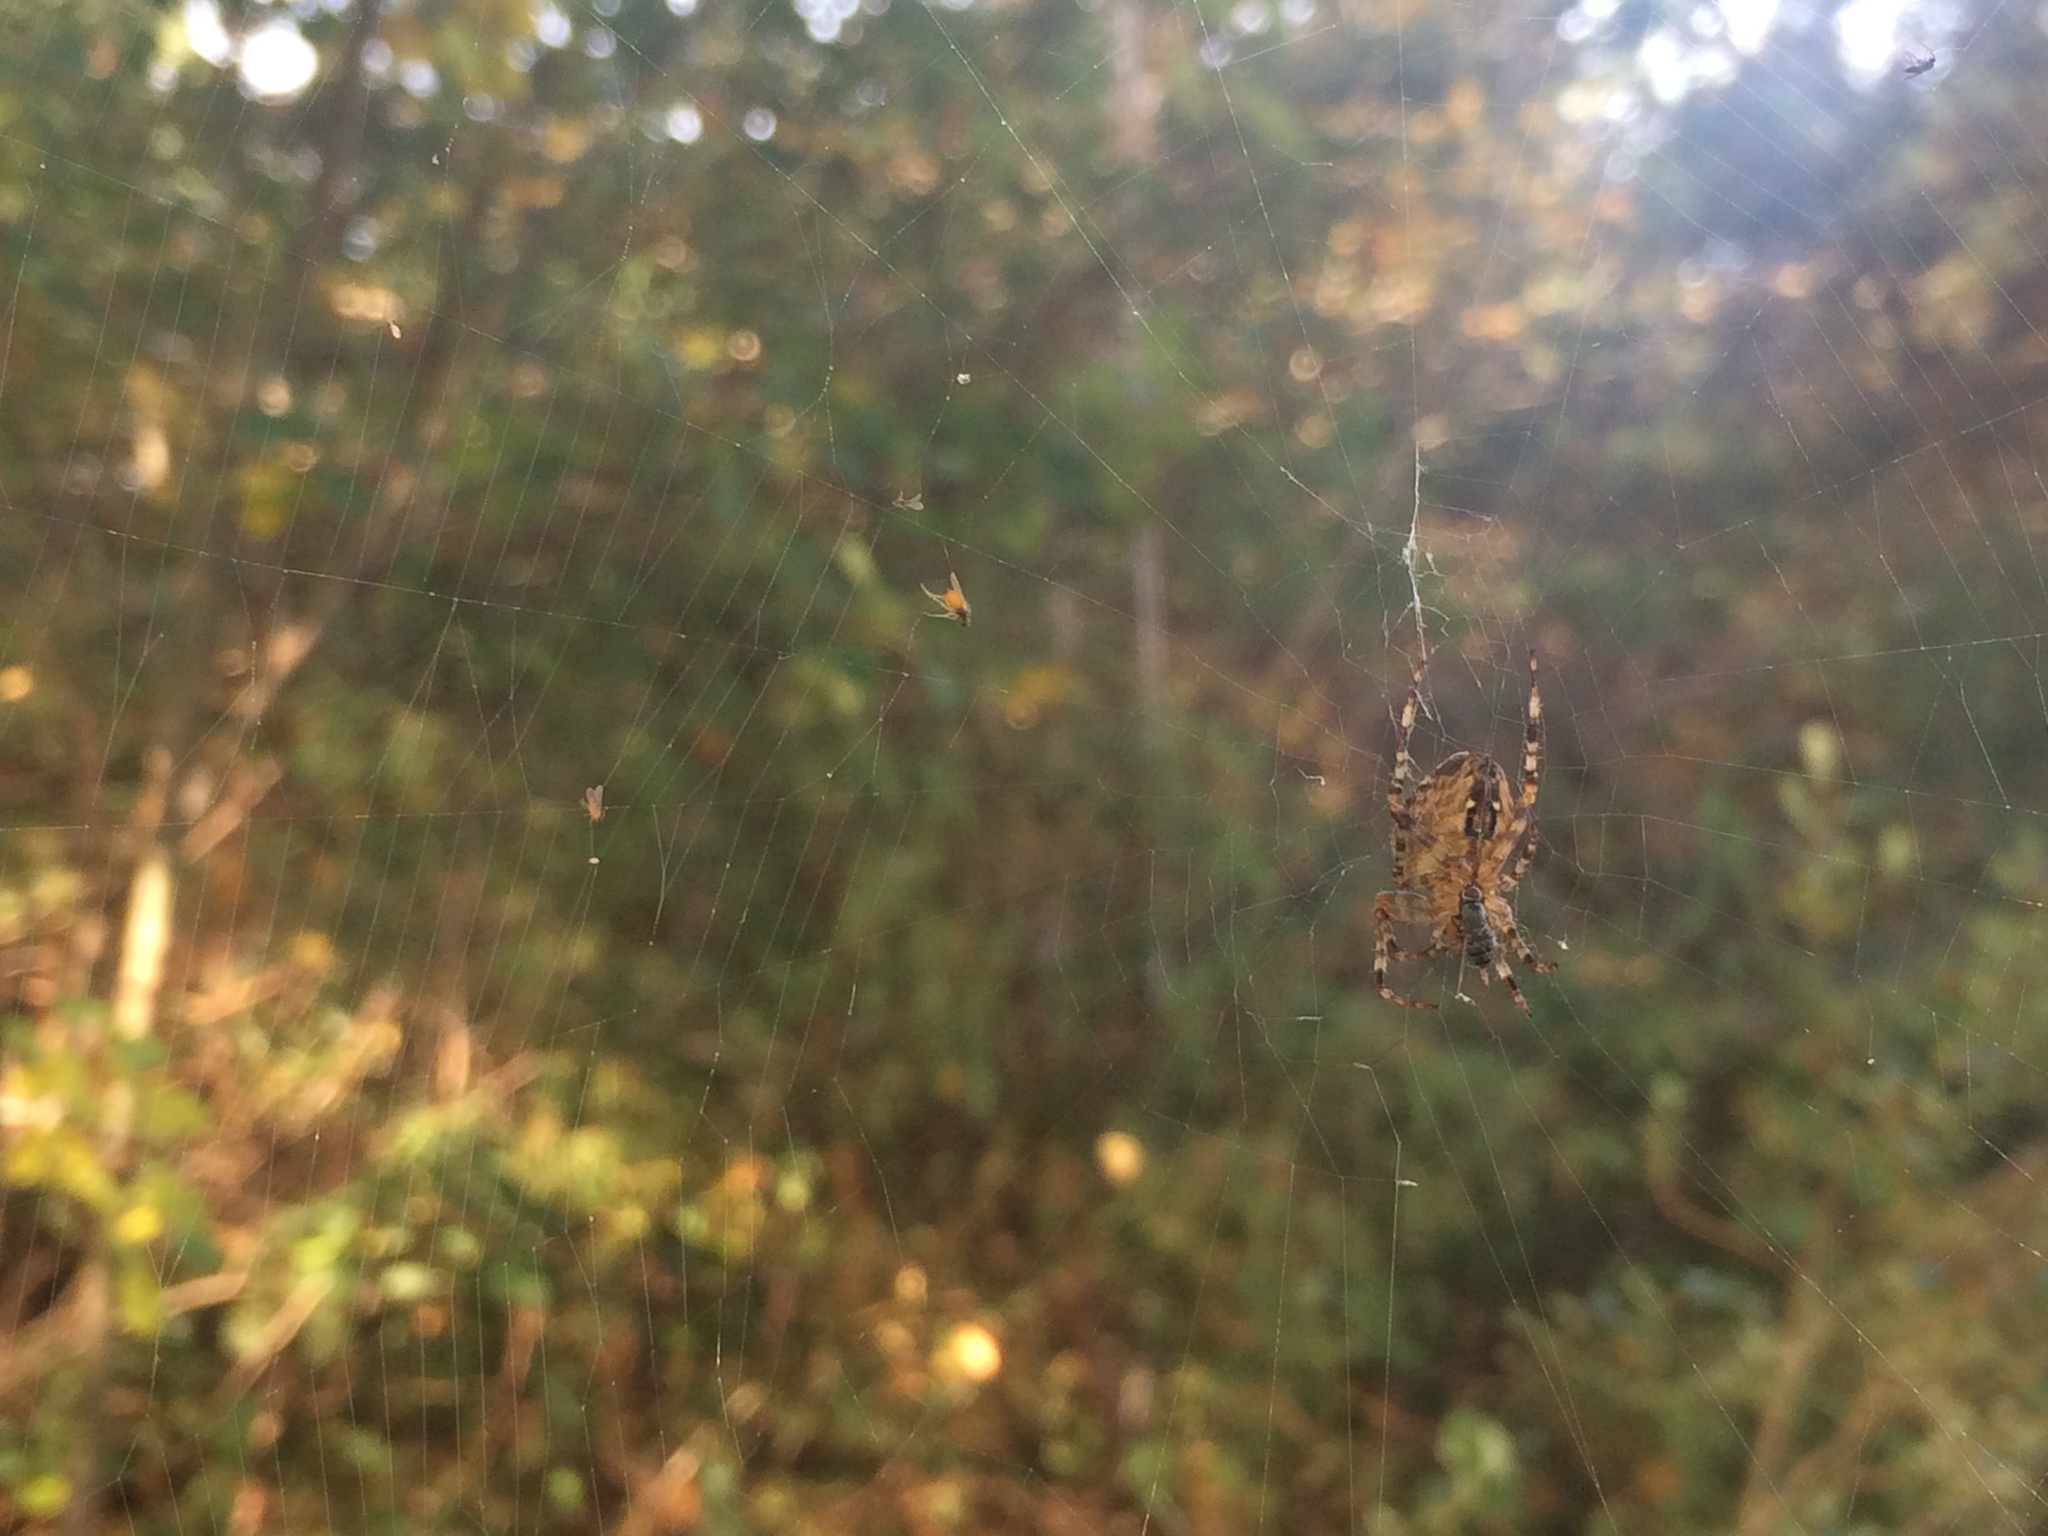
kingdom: Animalia
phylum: Arthropoda
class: Arachnida
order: Araneae
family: Araneidae
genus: Araneus
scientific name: Araneus diadematus
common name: Cross orbweaver
